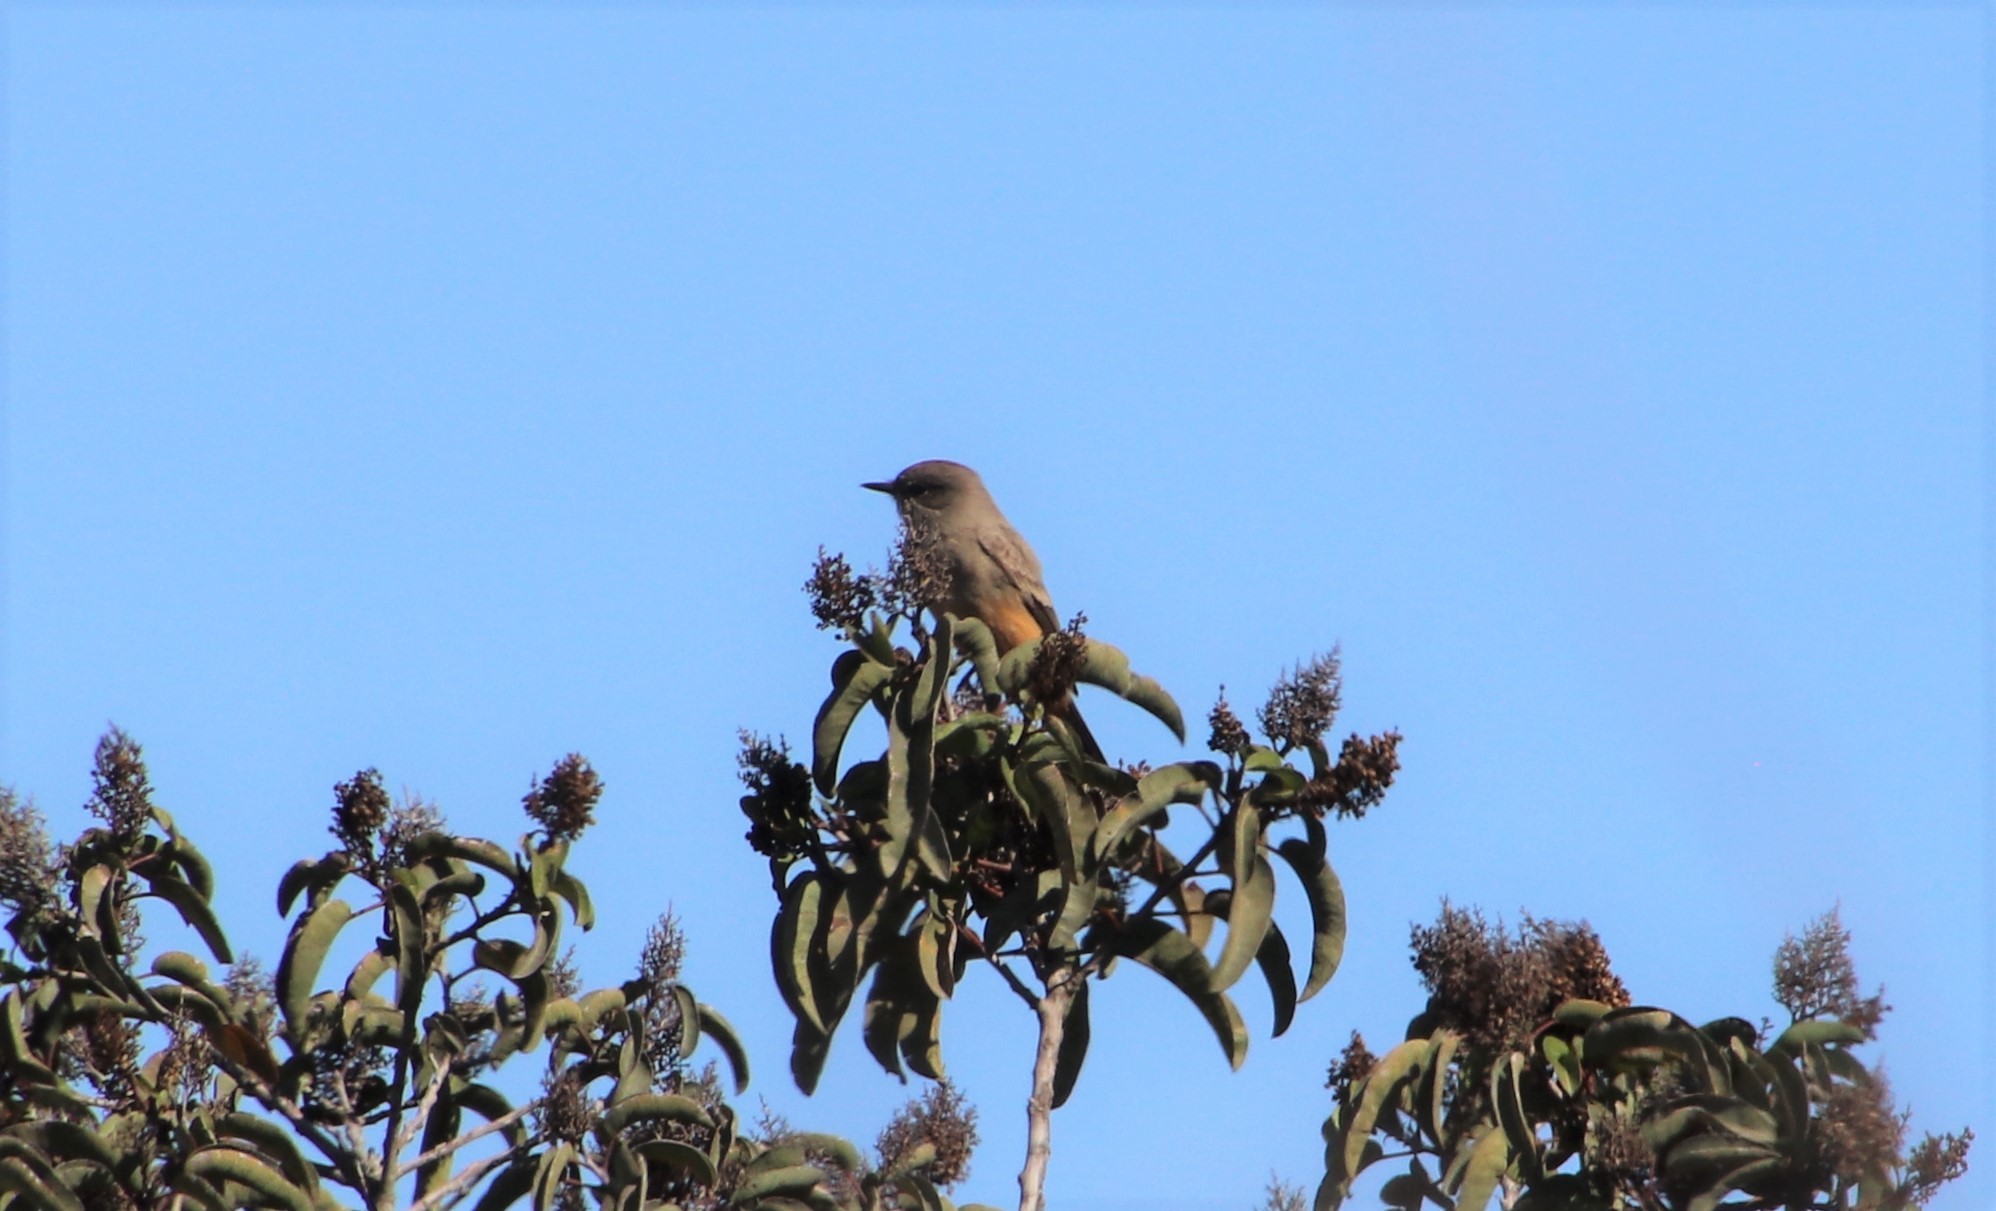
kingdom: Animalia
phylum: Chordata
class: Aves
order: Passeriformes
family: Tyrannidae
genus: Sayornis
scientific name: Sayornis saya
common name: Say's phoebe
